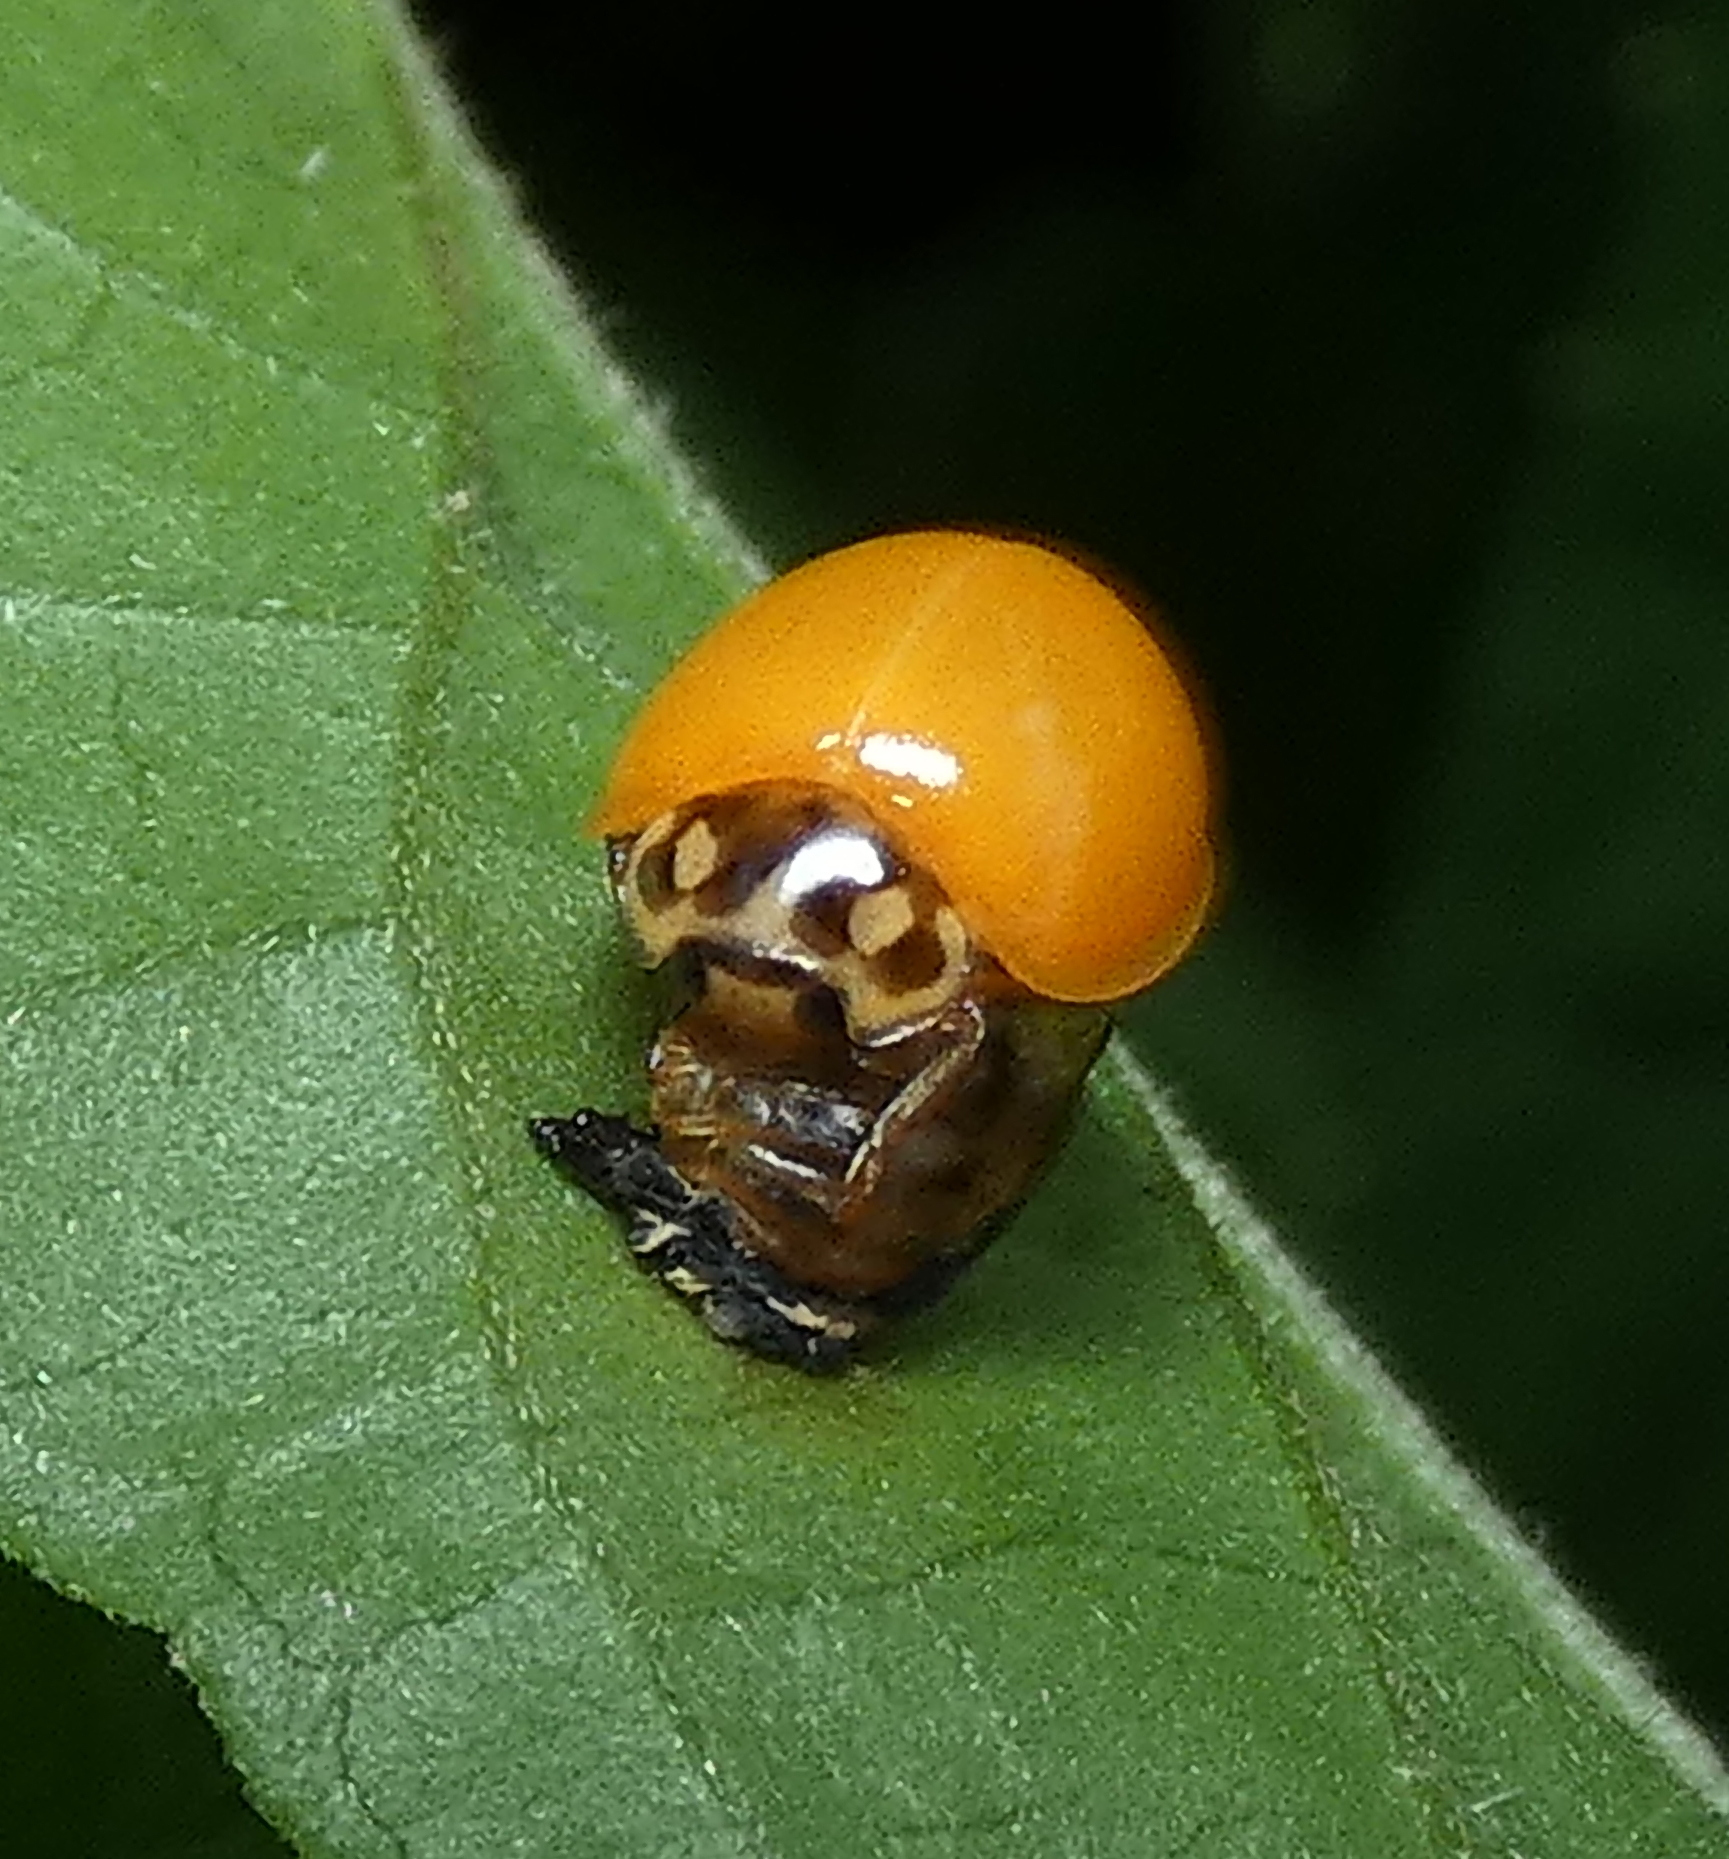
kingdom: Animalia
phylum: Arthropoda
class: Insecta
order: Coleoptera
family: Coccinellidae
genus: Cycloneda
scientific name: Cycloneda sanguinea
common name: Ladybird beetle
